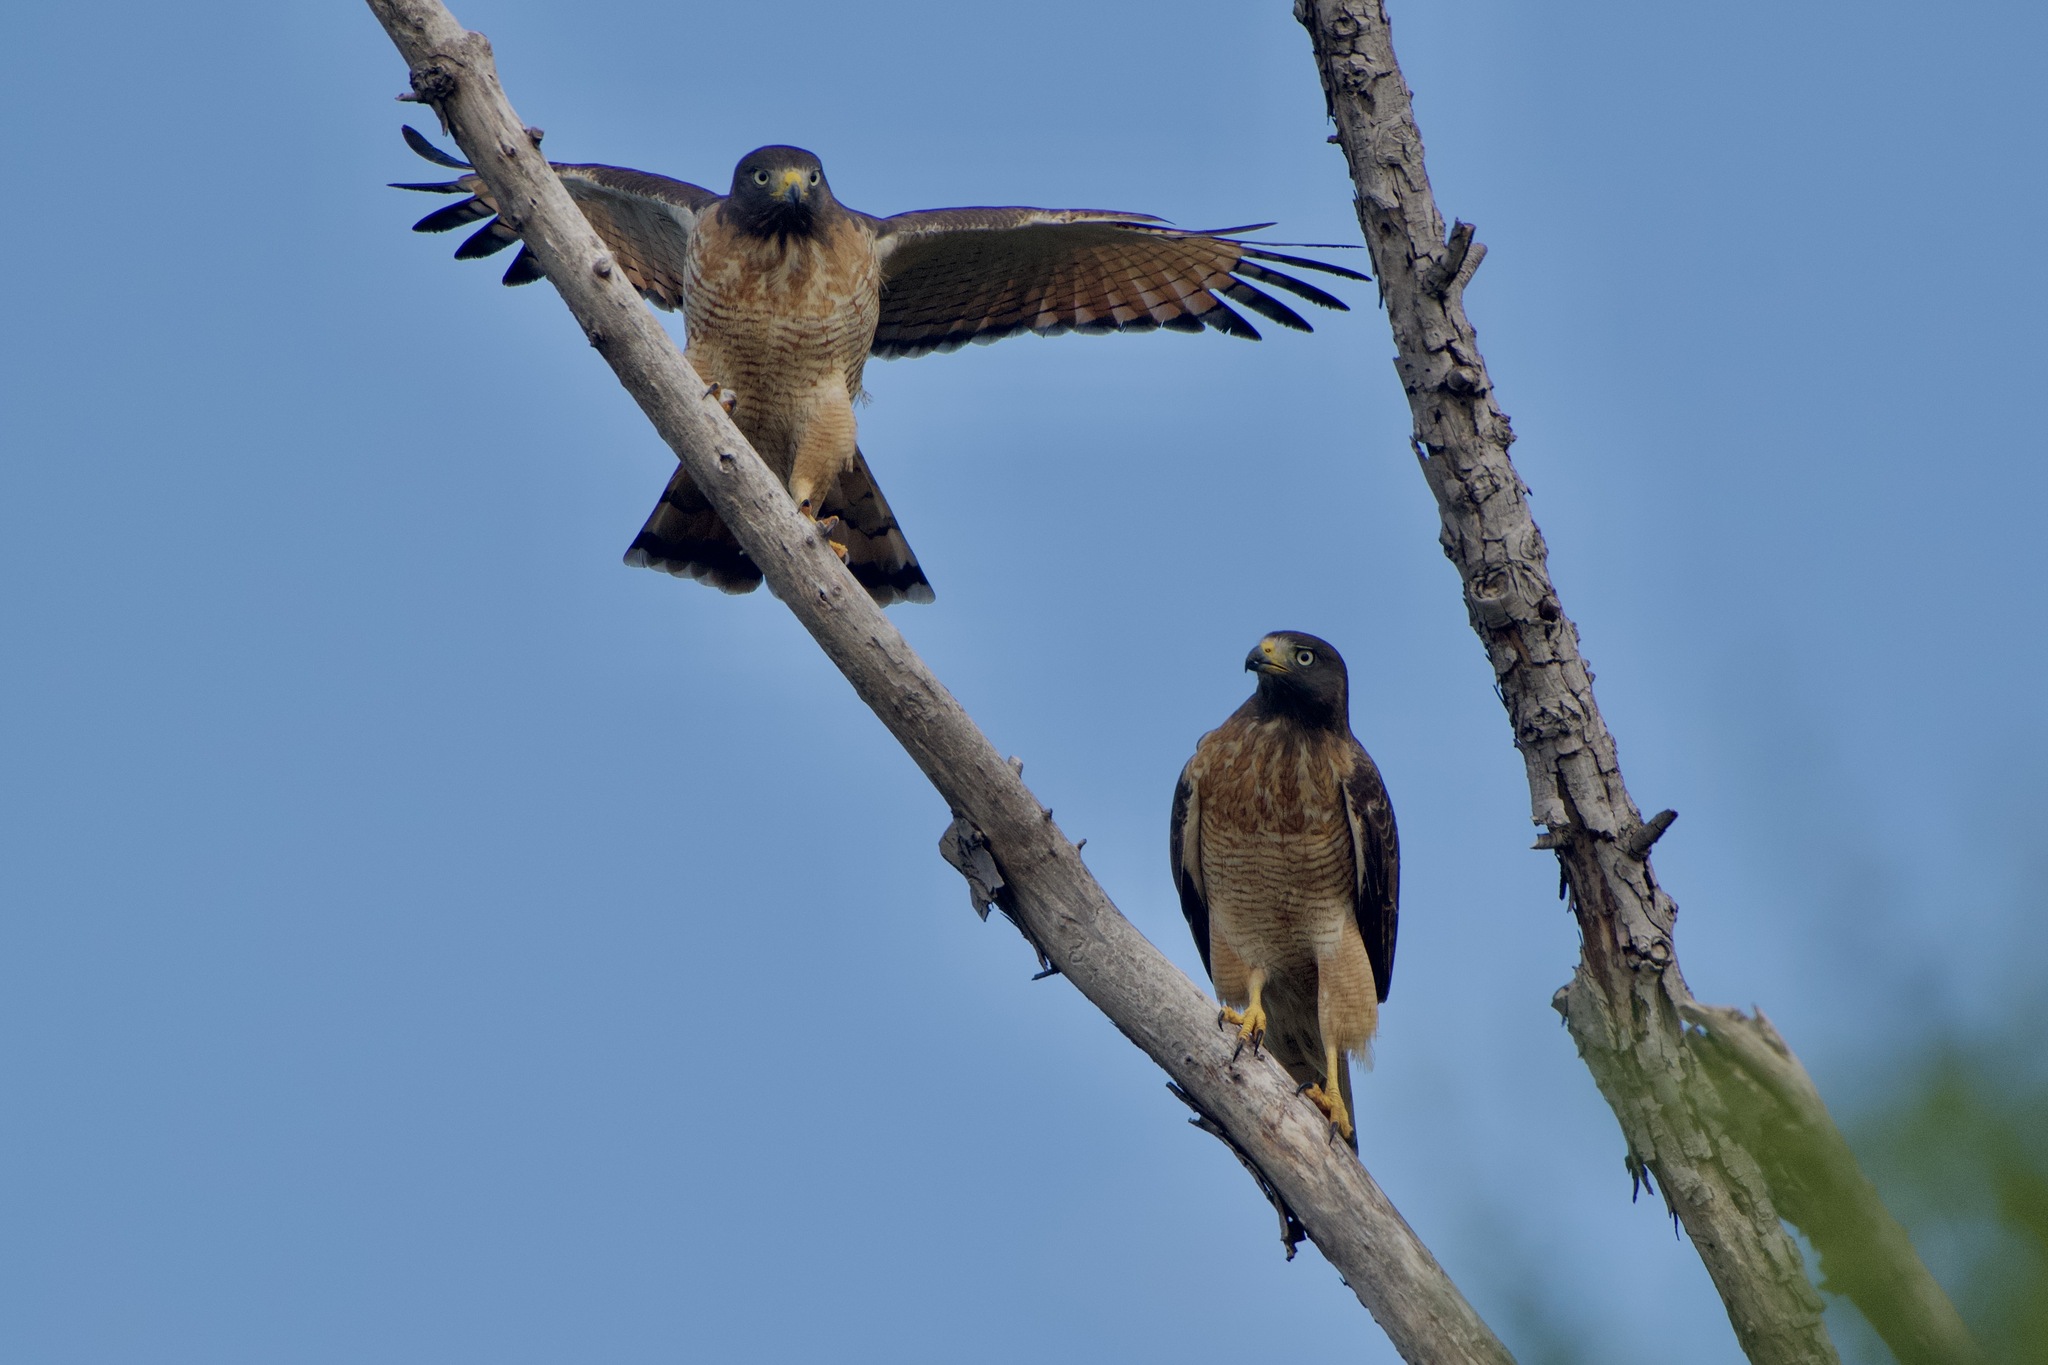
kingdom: Animalia
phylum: Chordata
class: Aves
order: Accipitriformes
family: Accipitridae
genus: Rupornis
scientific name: Rupornis magnirostris
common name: Roadside hawk
